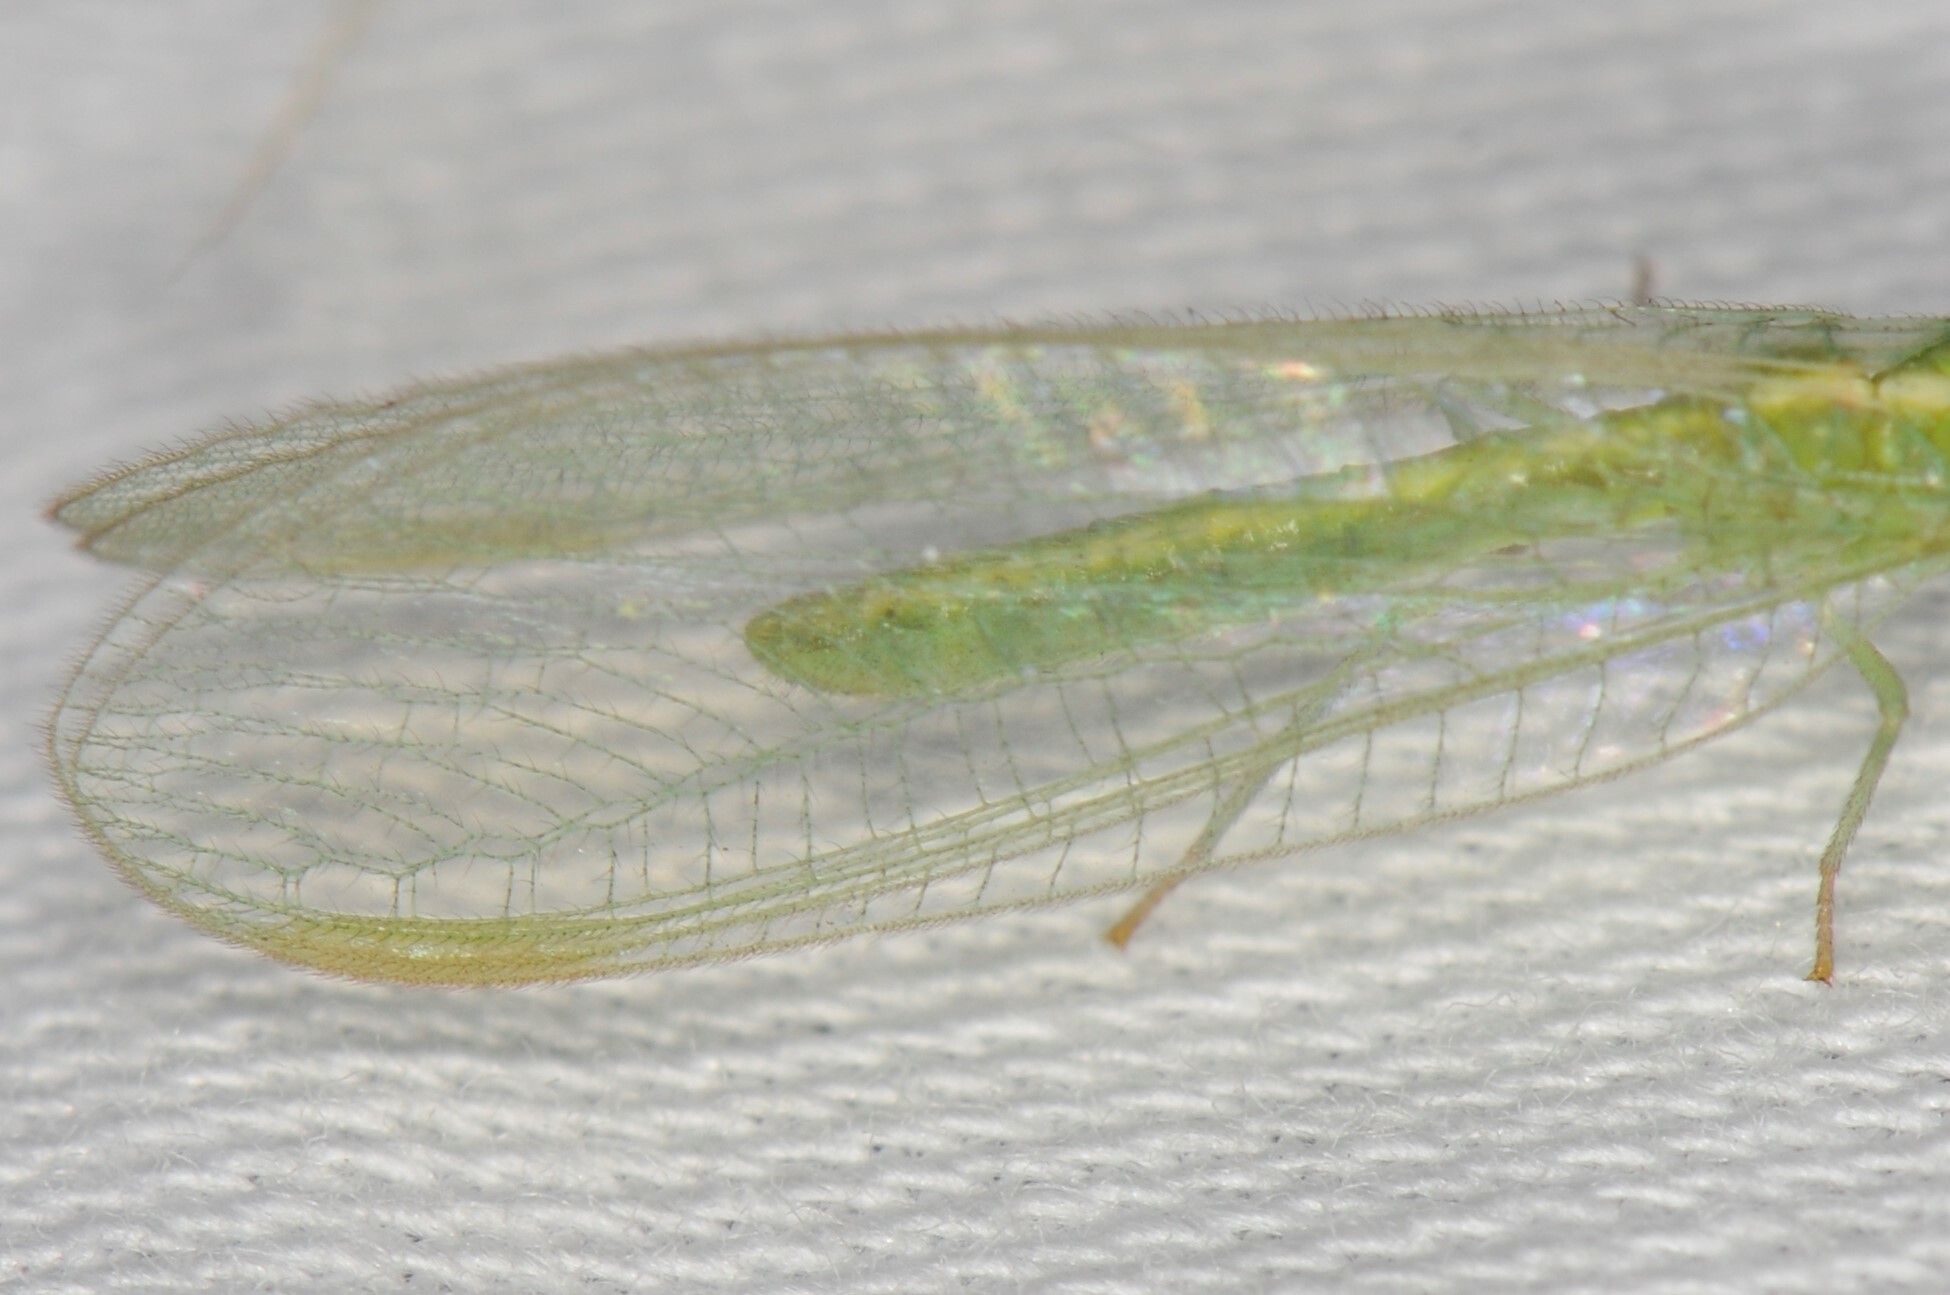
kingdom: Animalia
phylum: Arthropoda
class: Insecta
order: Neuroptera
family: Chrysopidae
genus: Chrysoperla
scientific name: Chrysoperla
